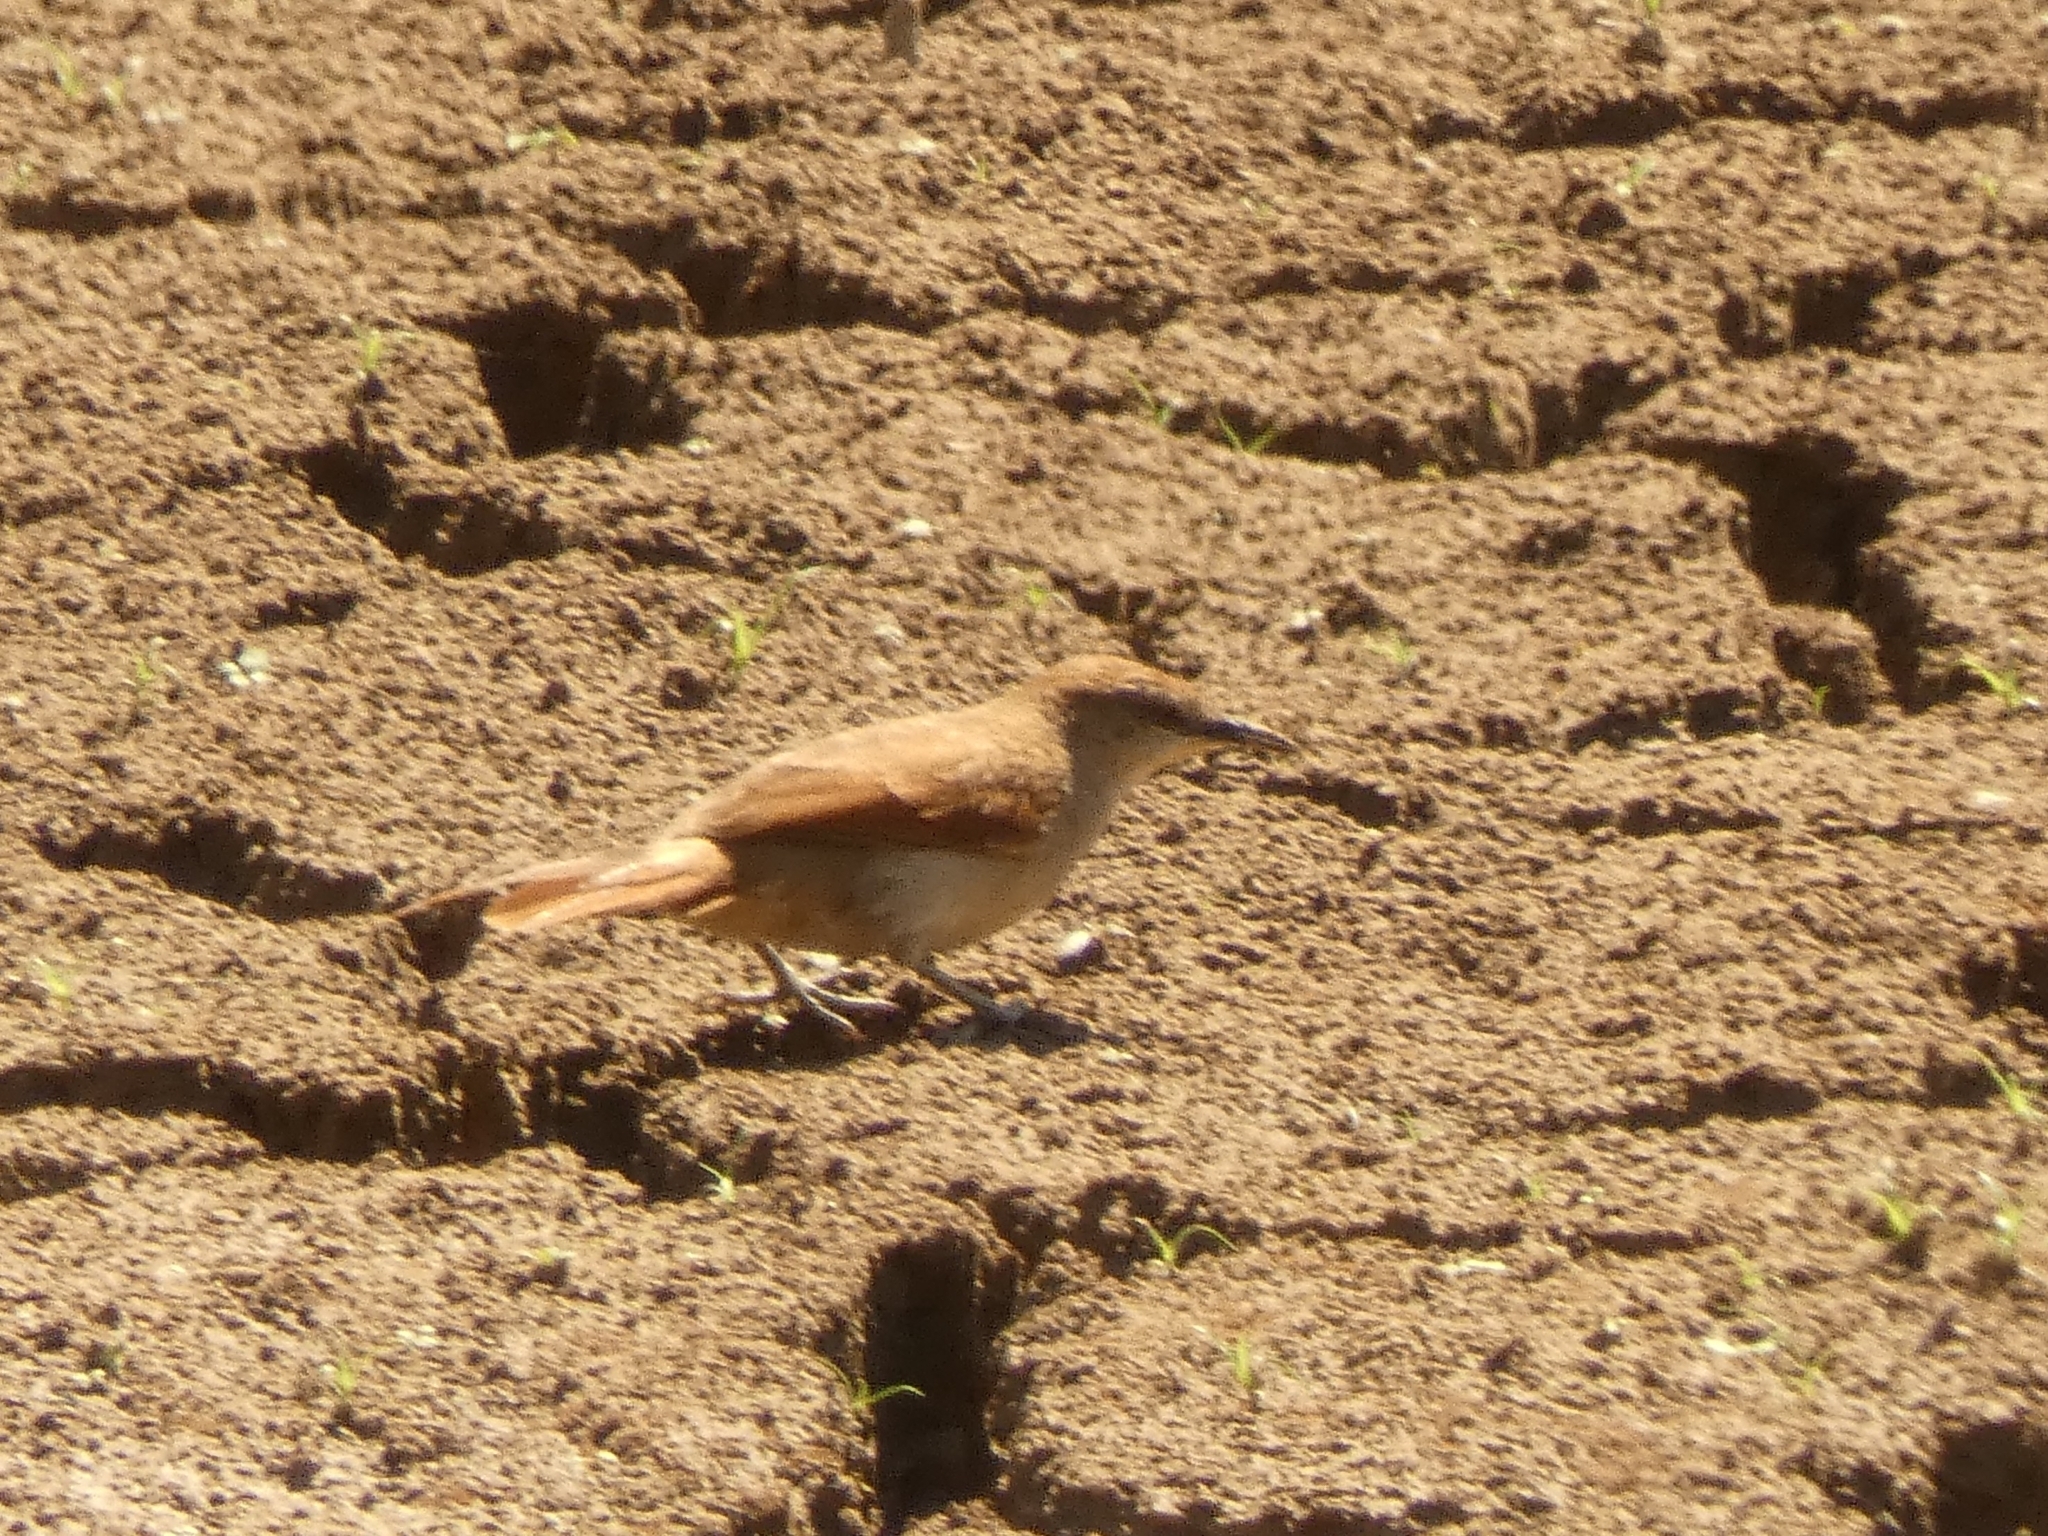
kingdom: Animalia
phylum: Chordata
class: Aves
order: Passeriformes
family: Furnariidae
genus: Certhiaxis
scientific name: Certhiaxis cinnamomeus
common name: Yellow-chinned spinetail
